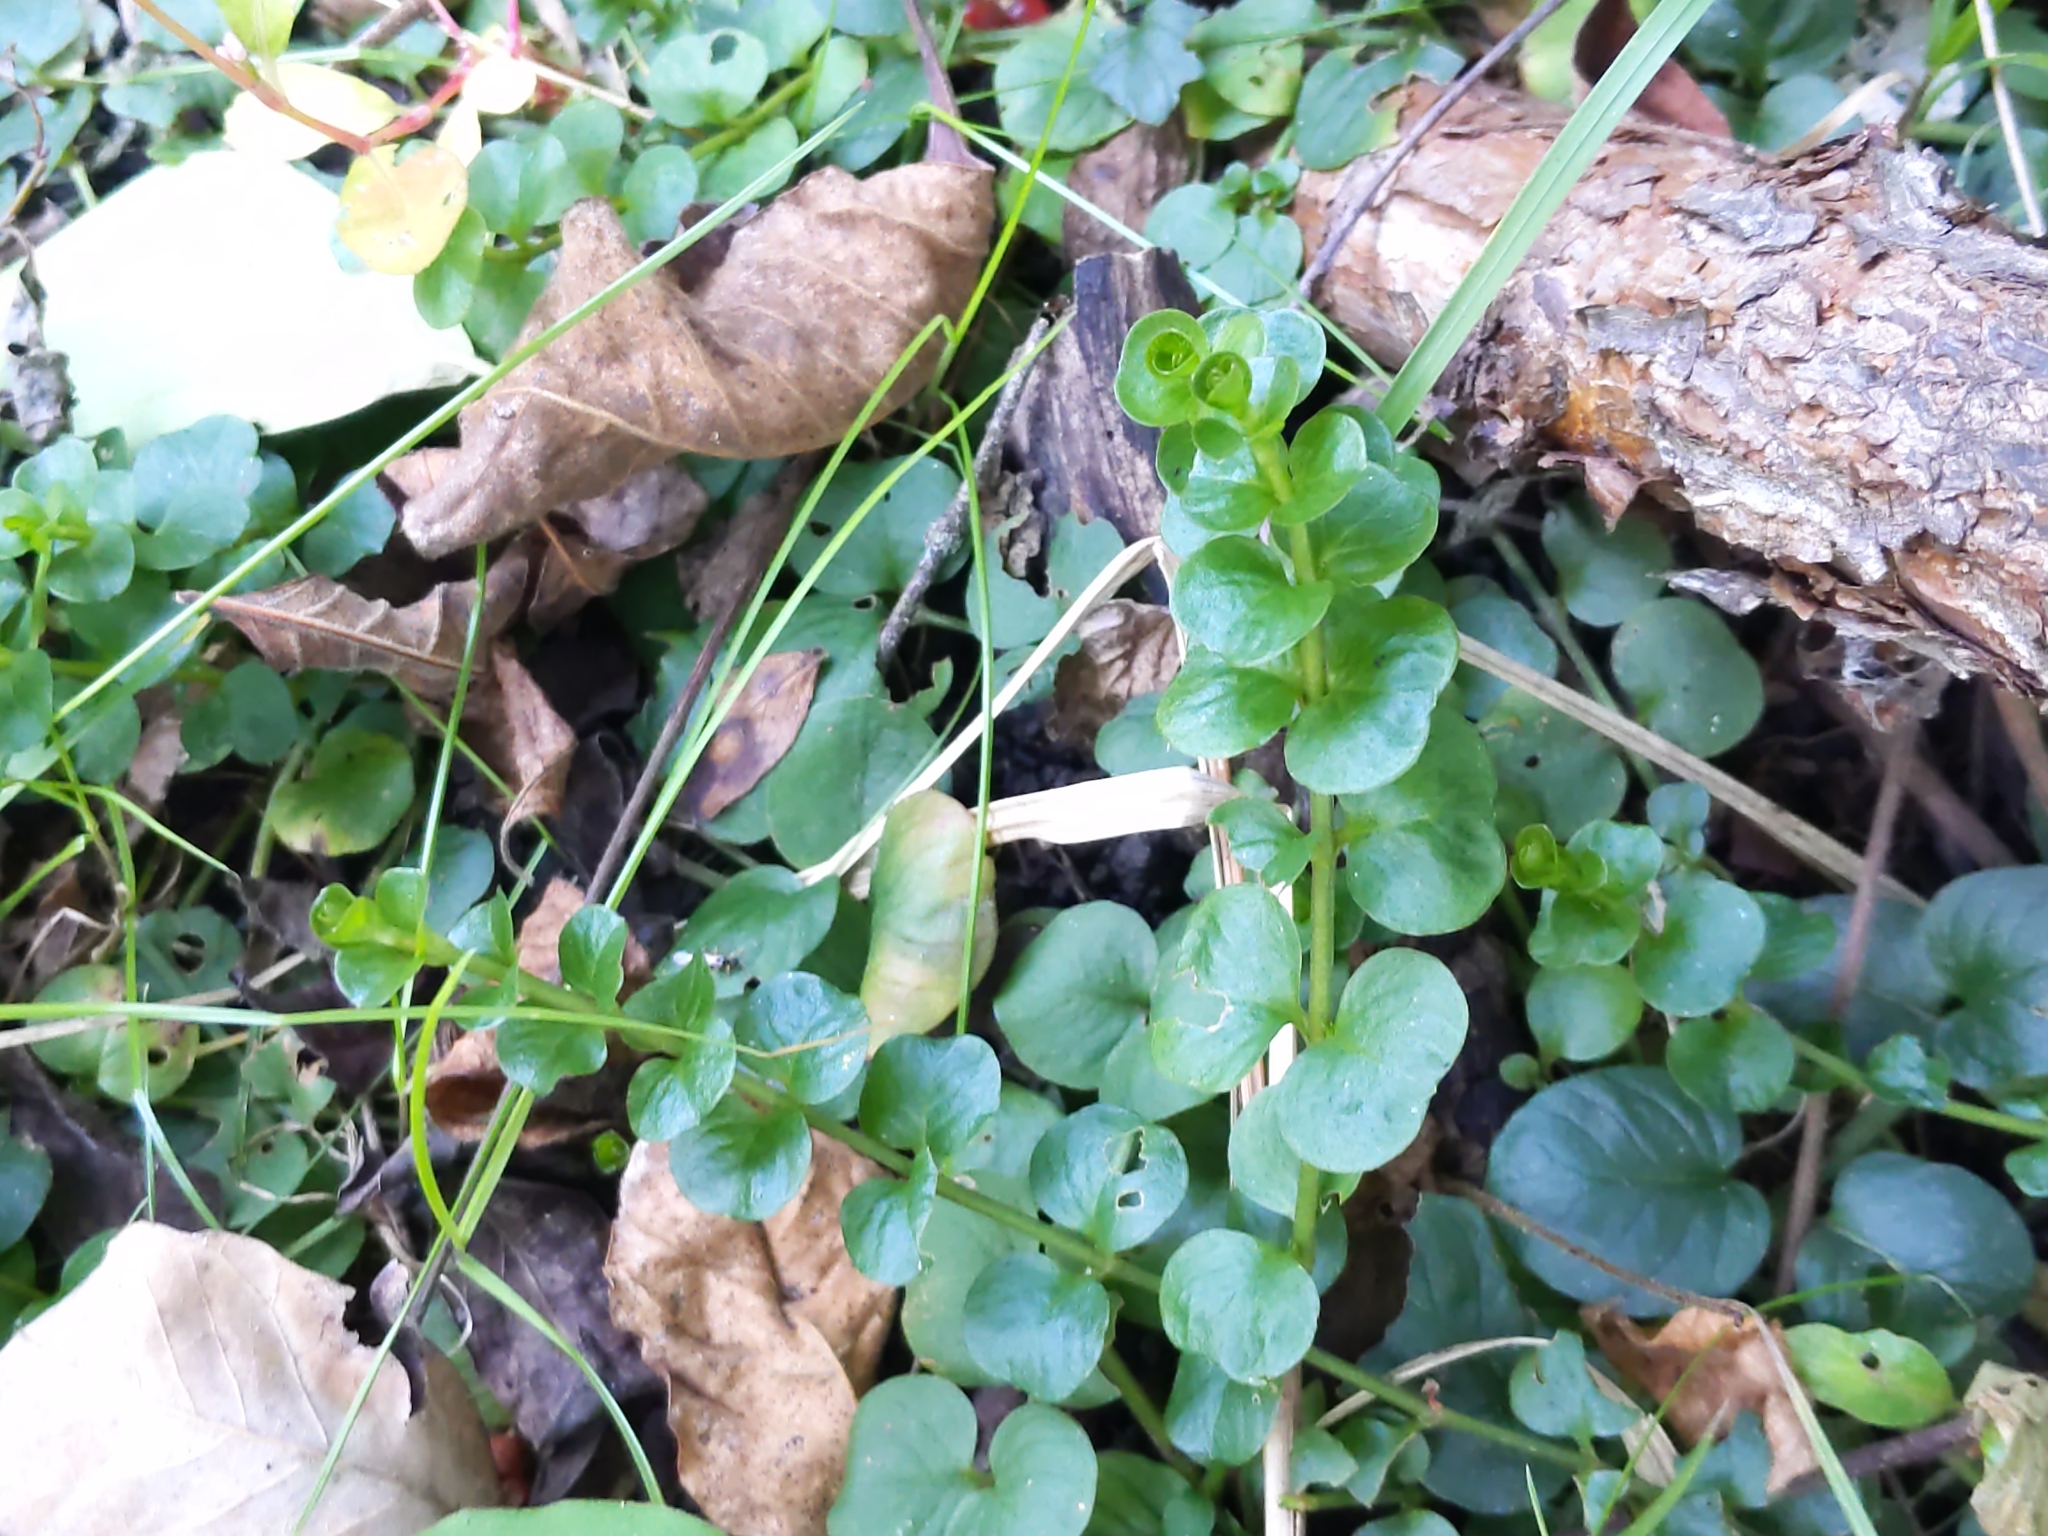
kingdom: Plantae
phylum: Tracheophyta
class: Magnoliopsida
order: Ericales
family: Primulaceae
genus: Lysimachia
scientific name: Lysimachia nummularia
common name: Moneywort
